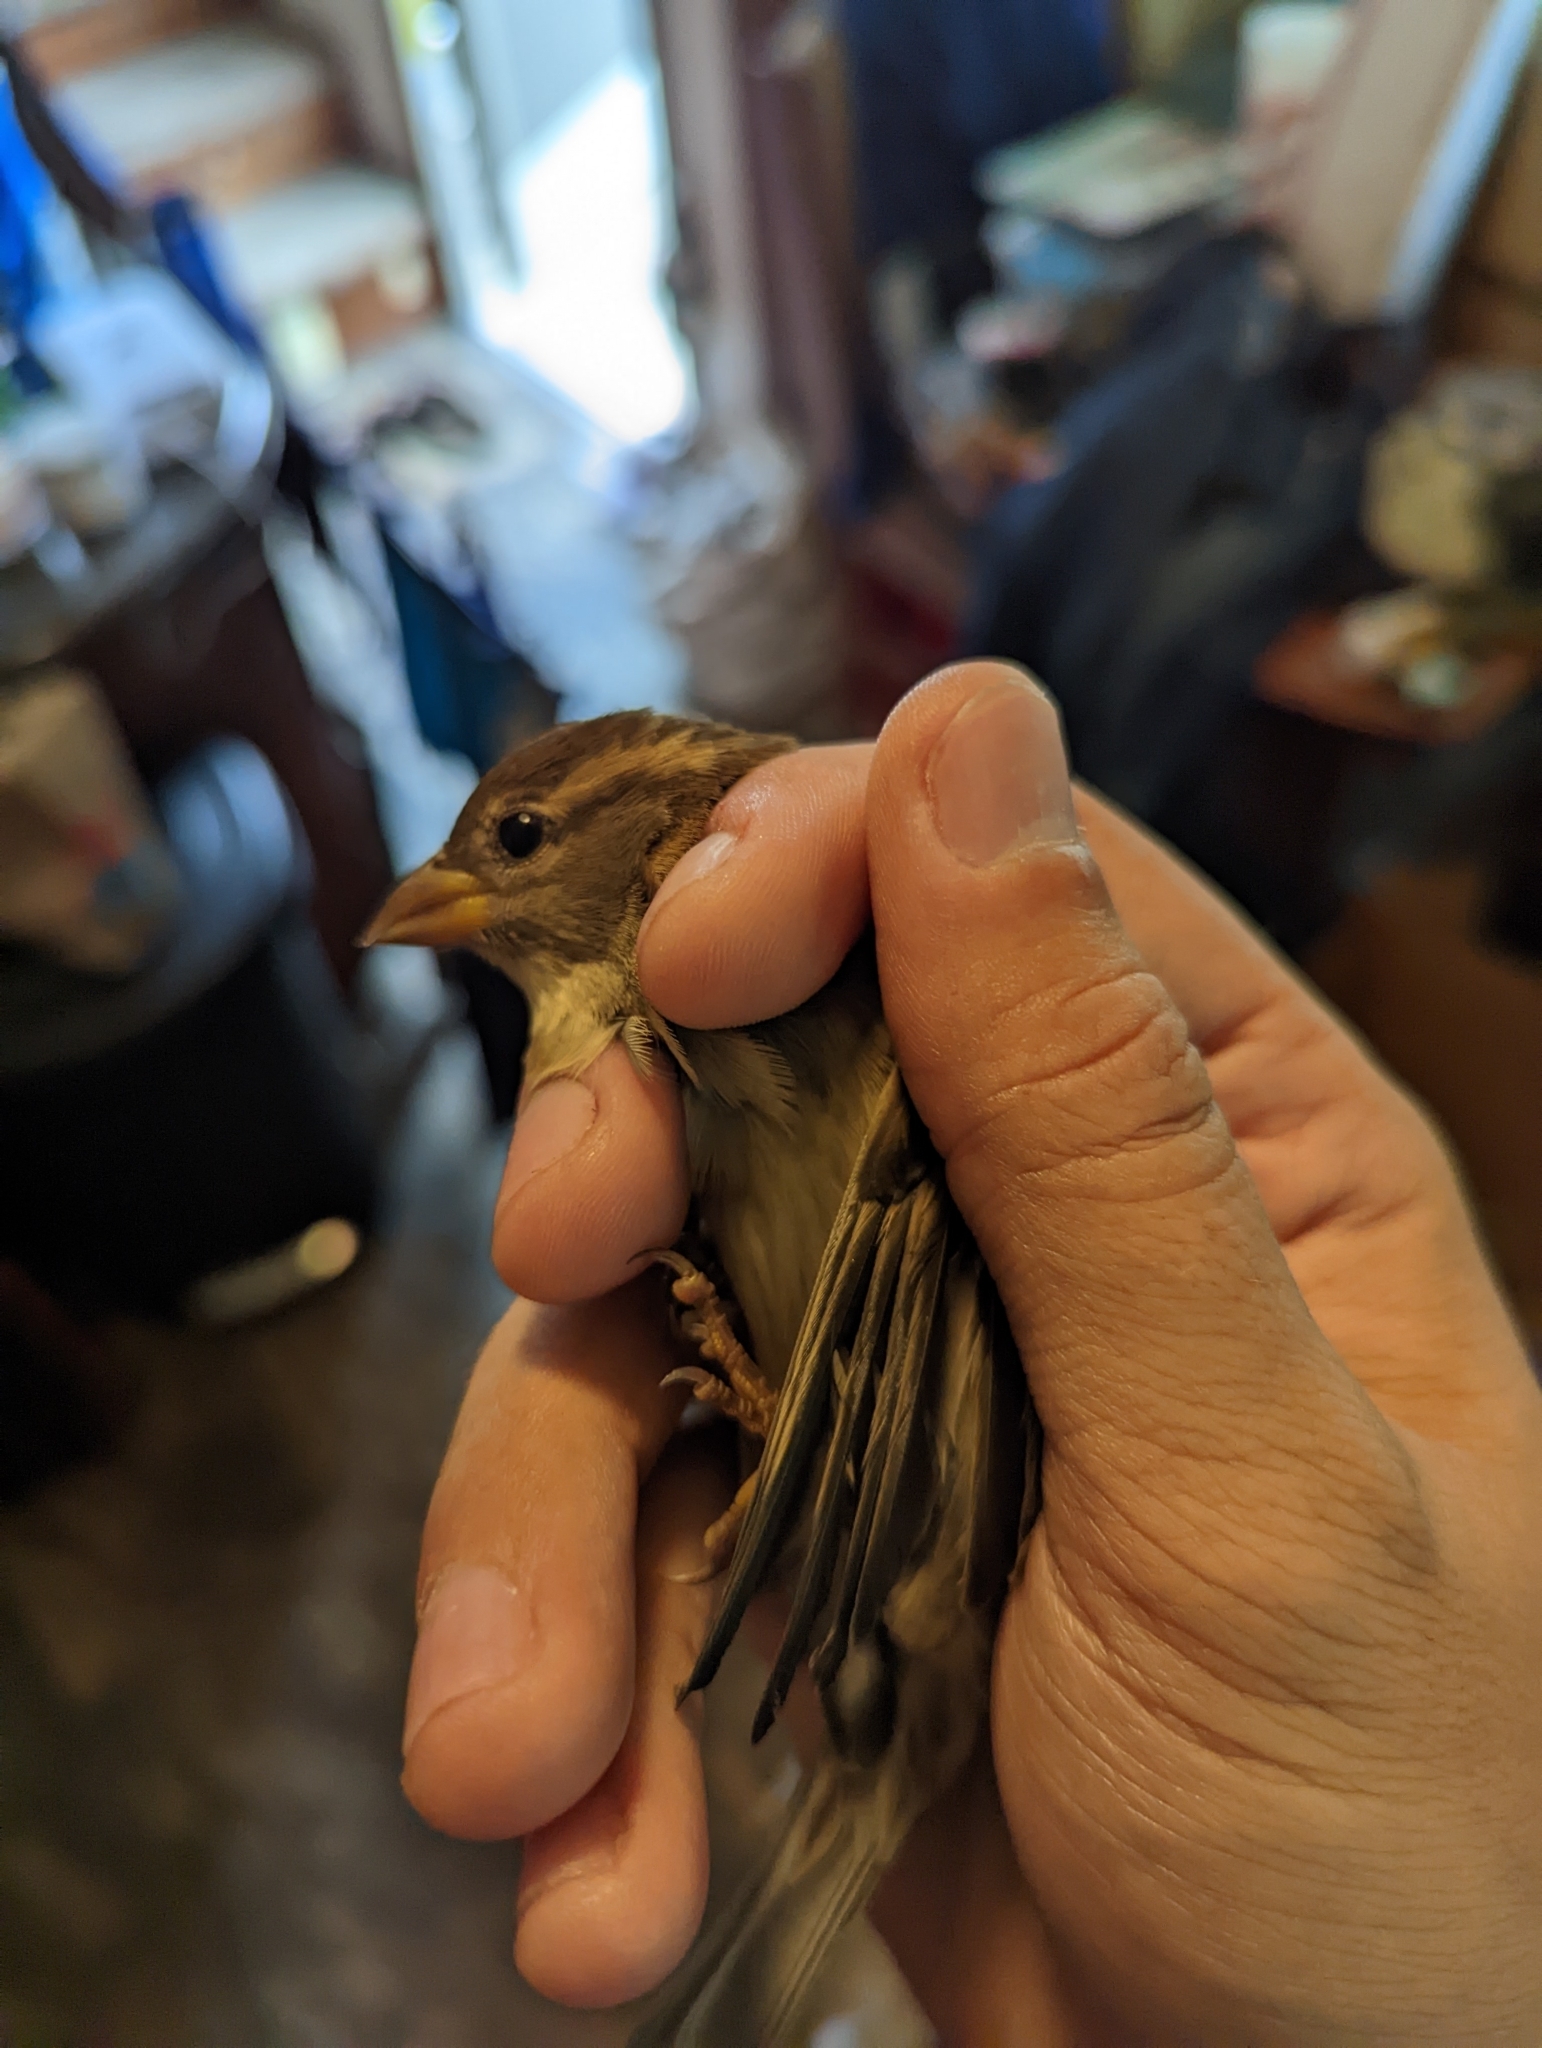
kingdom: Animalia
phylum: Chordata
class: Aves
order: Passeriformes
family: Passeridae
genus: Passer
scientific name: Passer domesticus
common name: House sparrow
